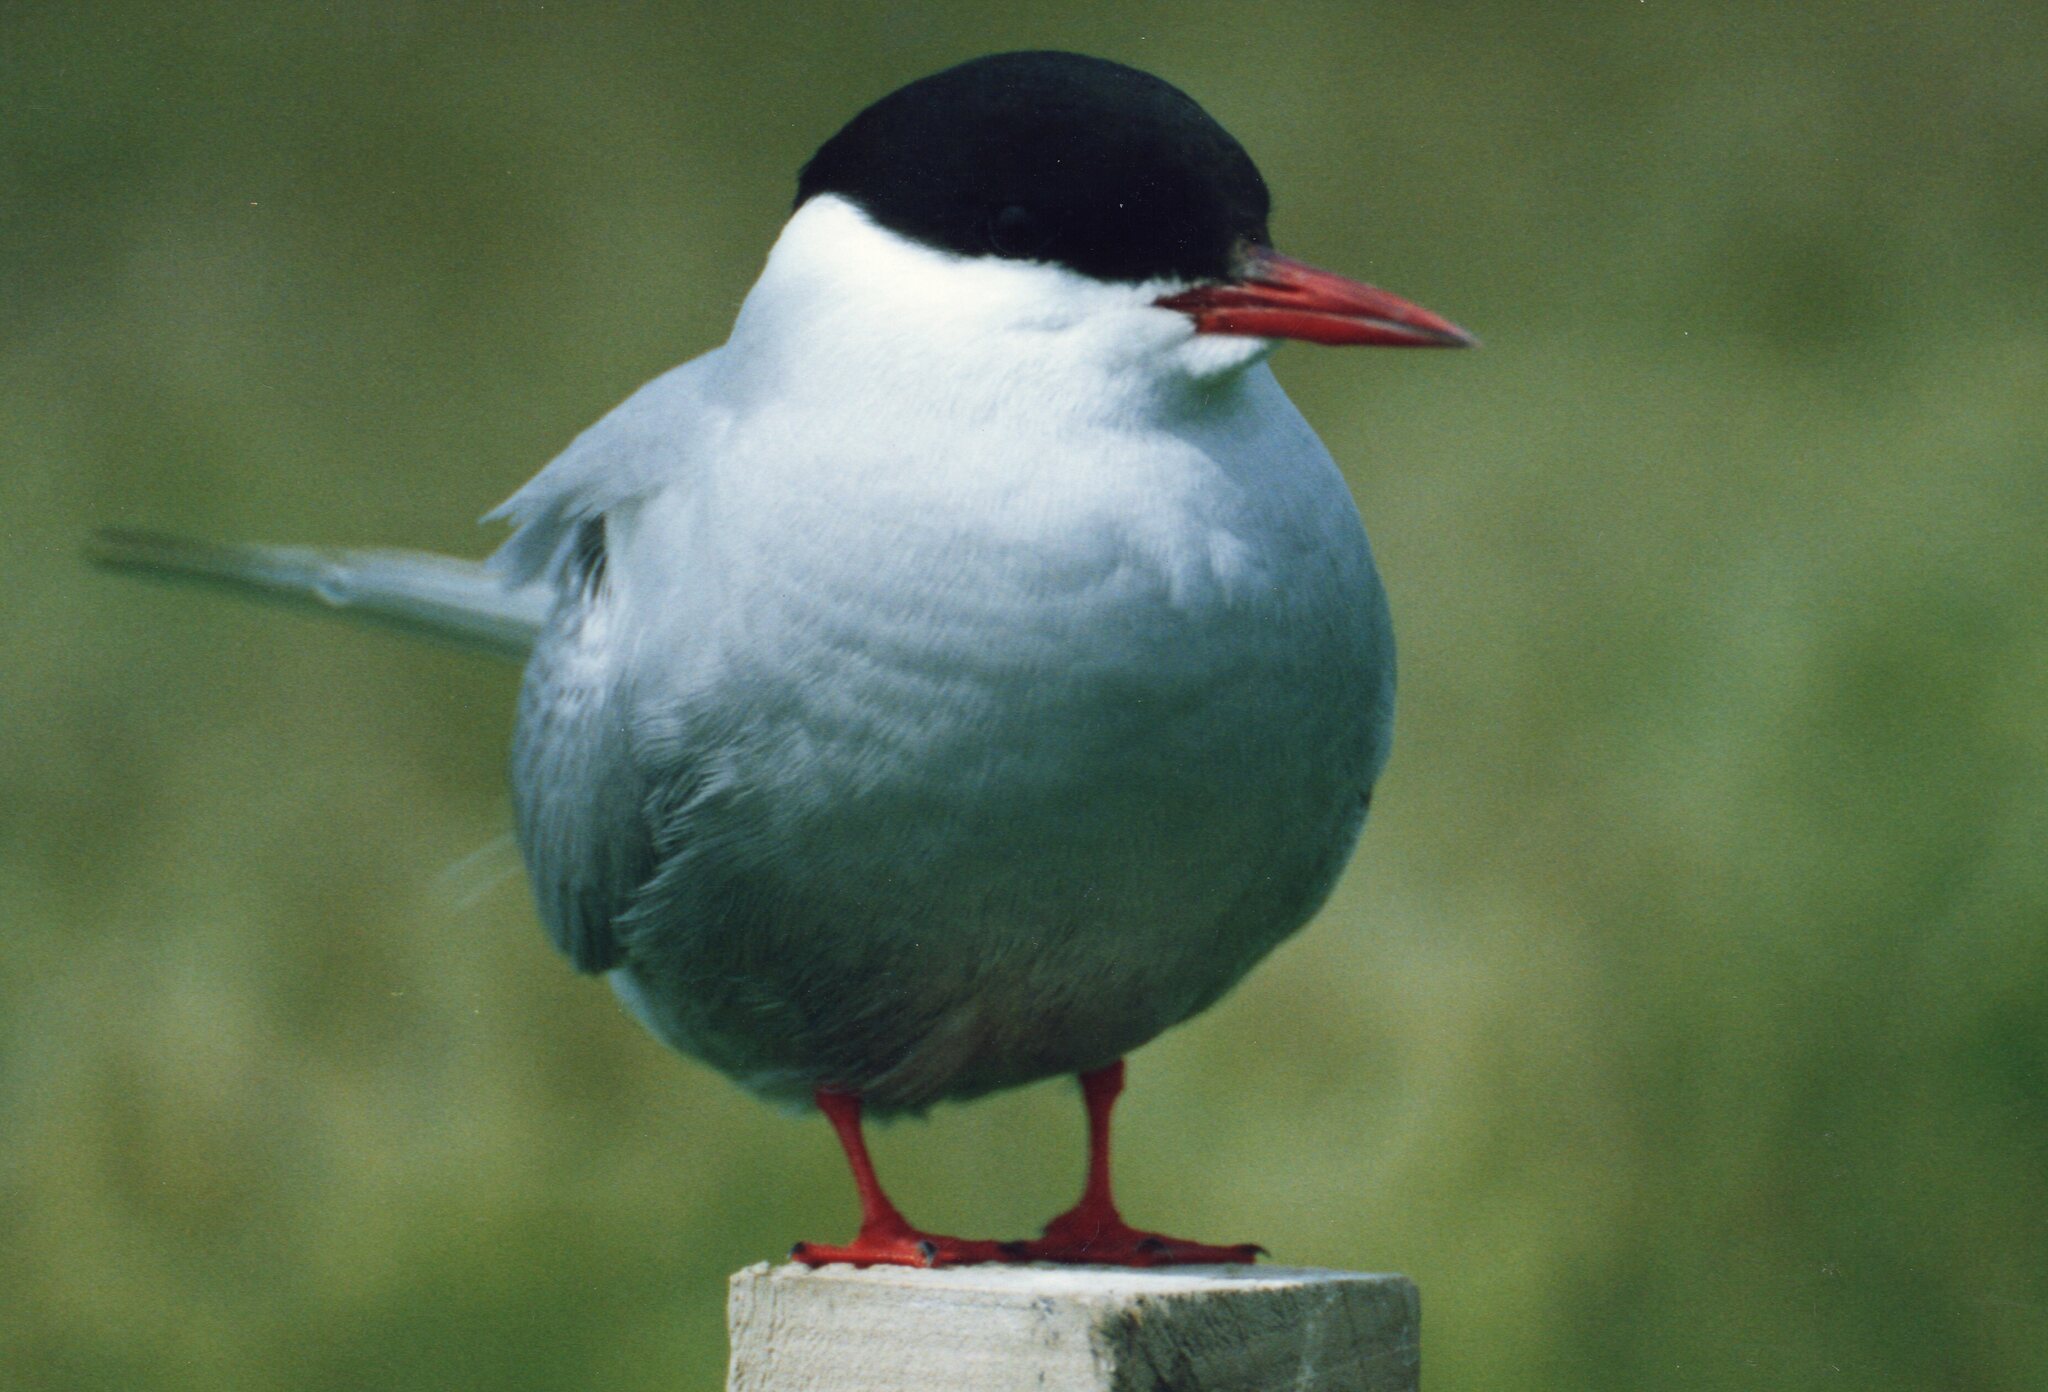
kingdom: Animalia
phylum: Chordata
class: Aves
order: Charadriiformes
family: Laridae
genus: Sterna
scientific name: Sterna paradisaea
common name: Arctic tern
